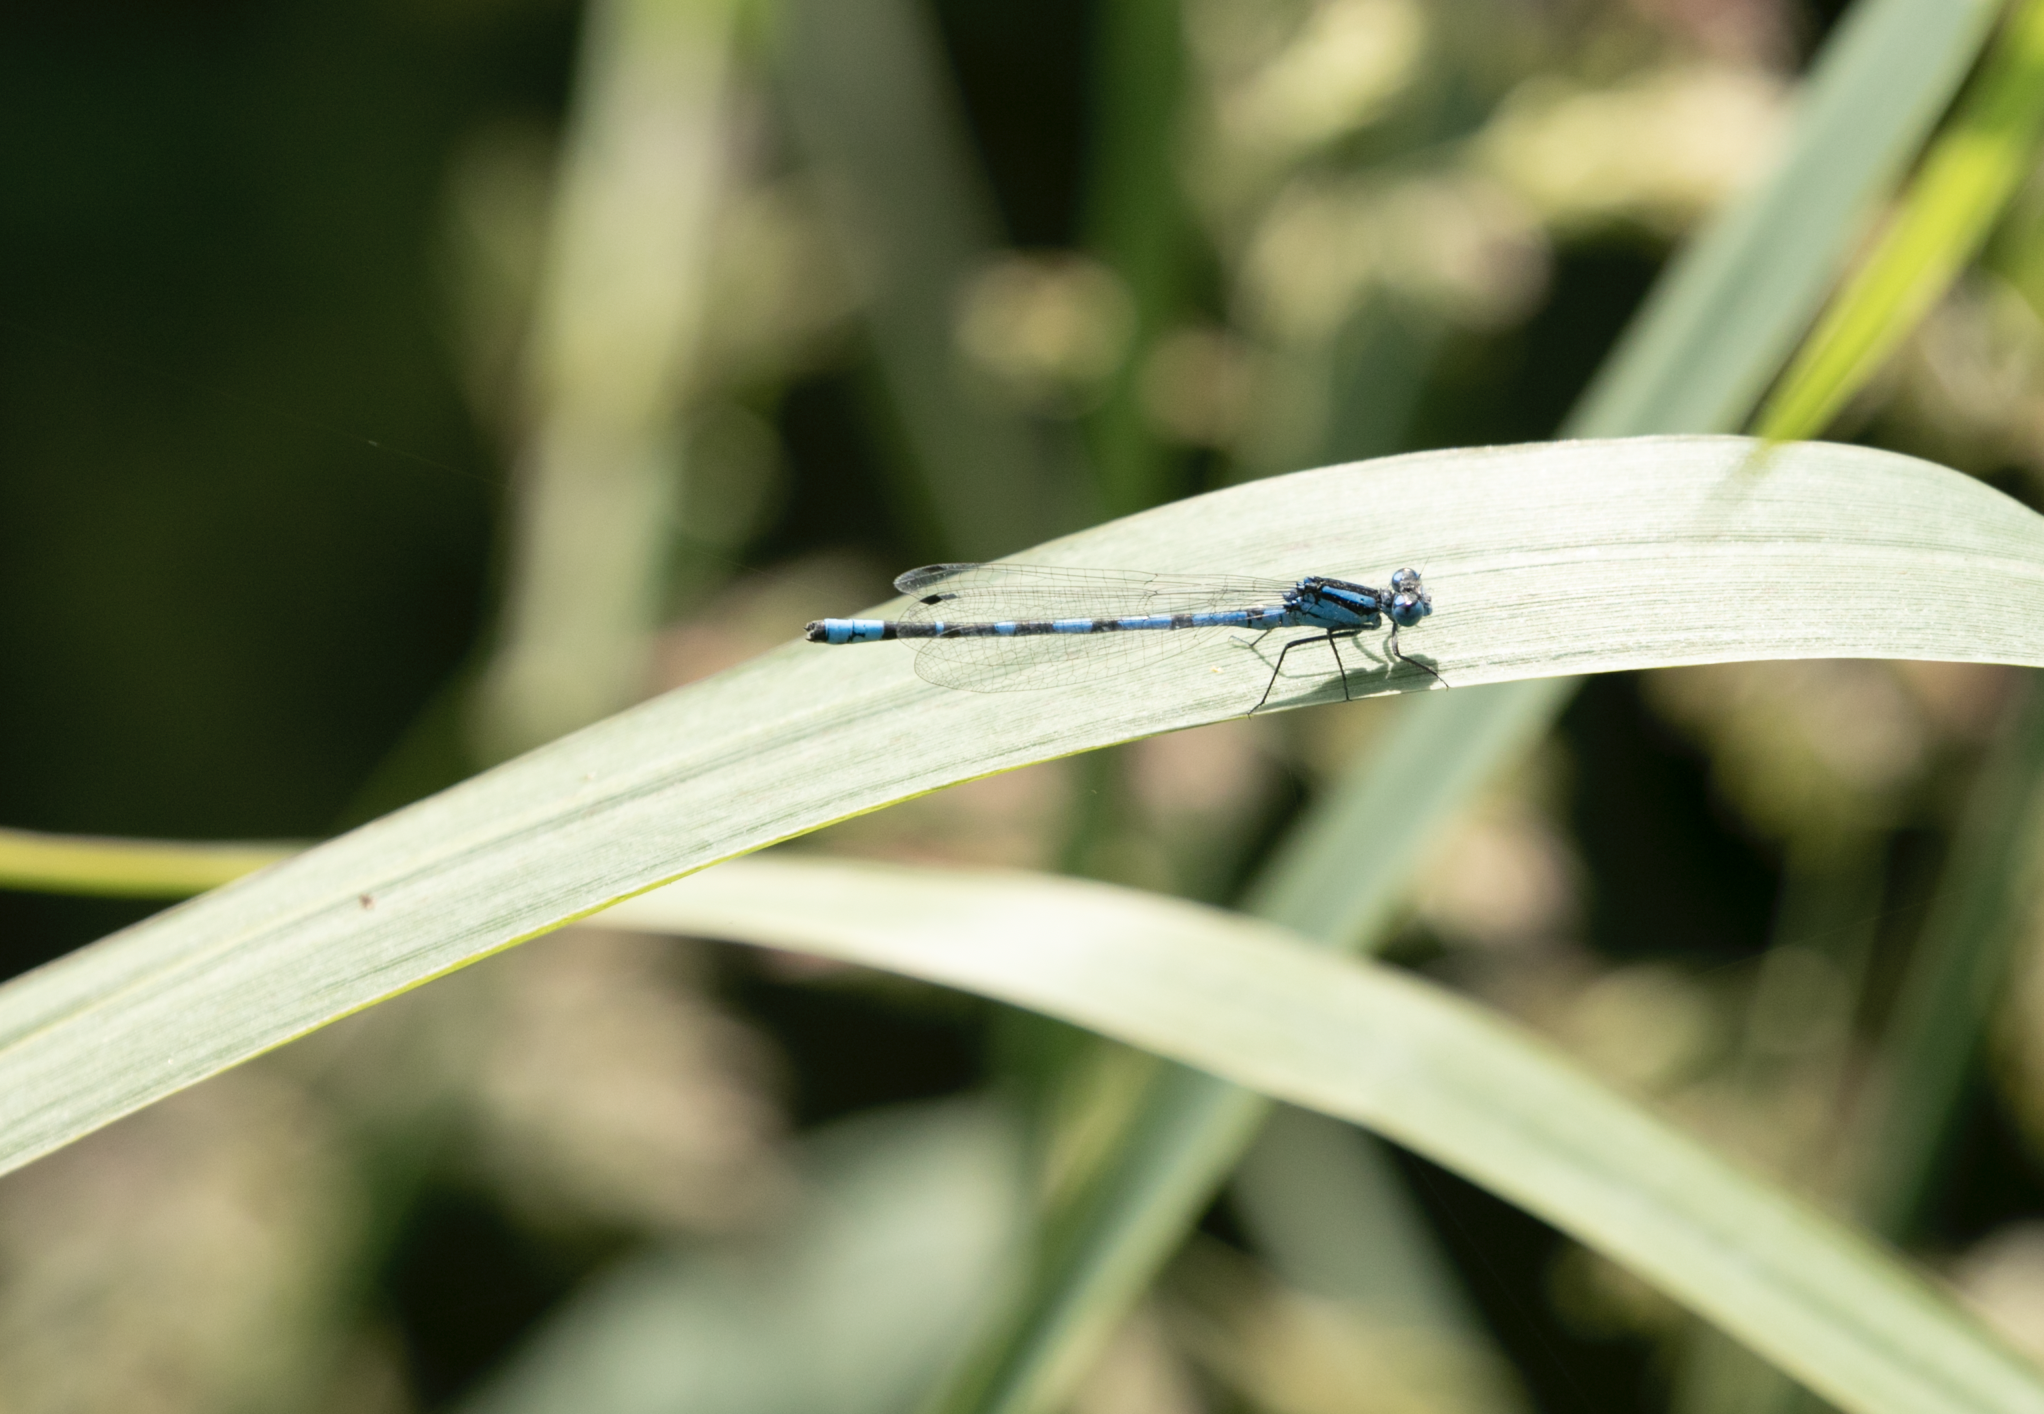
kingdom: Animalia
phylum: Arthropoda
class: Insecta
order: Odonata
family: Coenagrionidae
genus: Enallagma
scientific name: Enallagma cyathigerum
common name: Common blue damselfly
